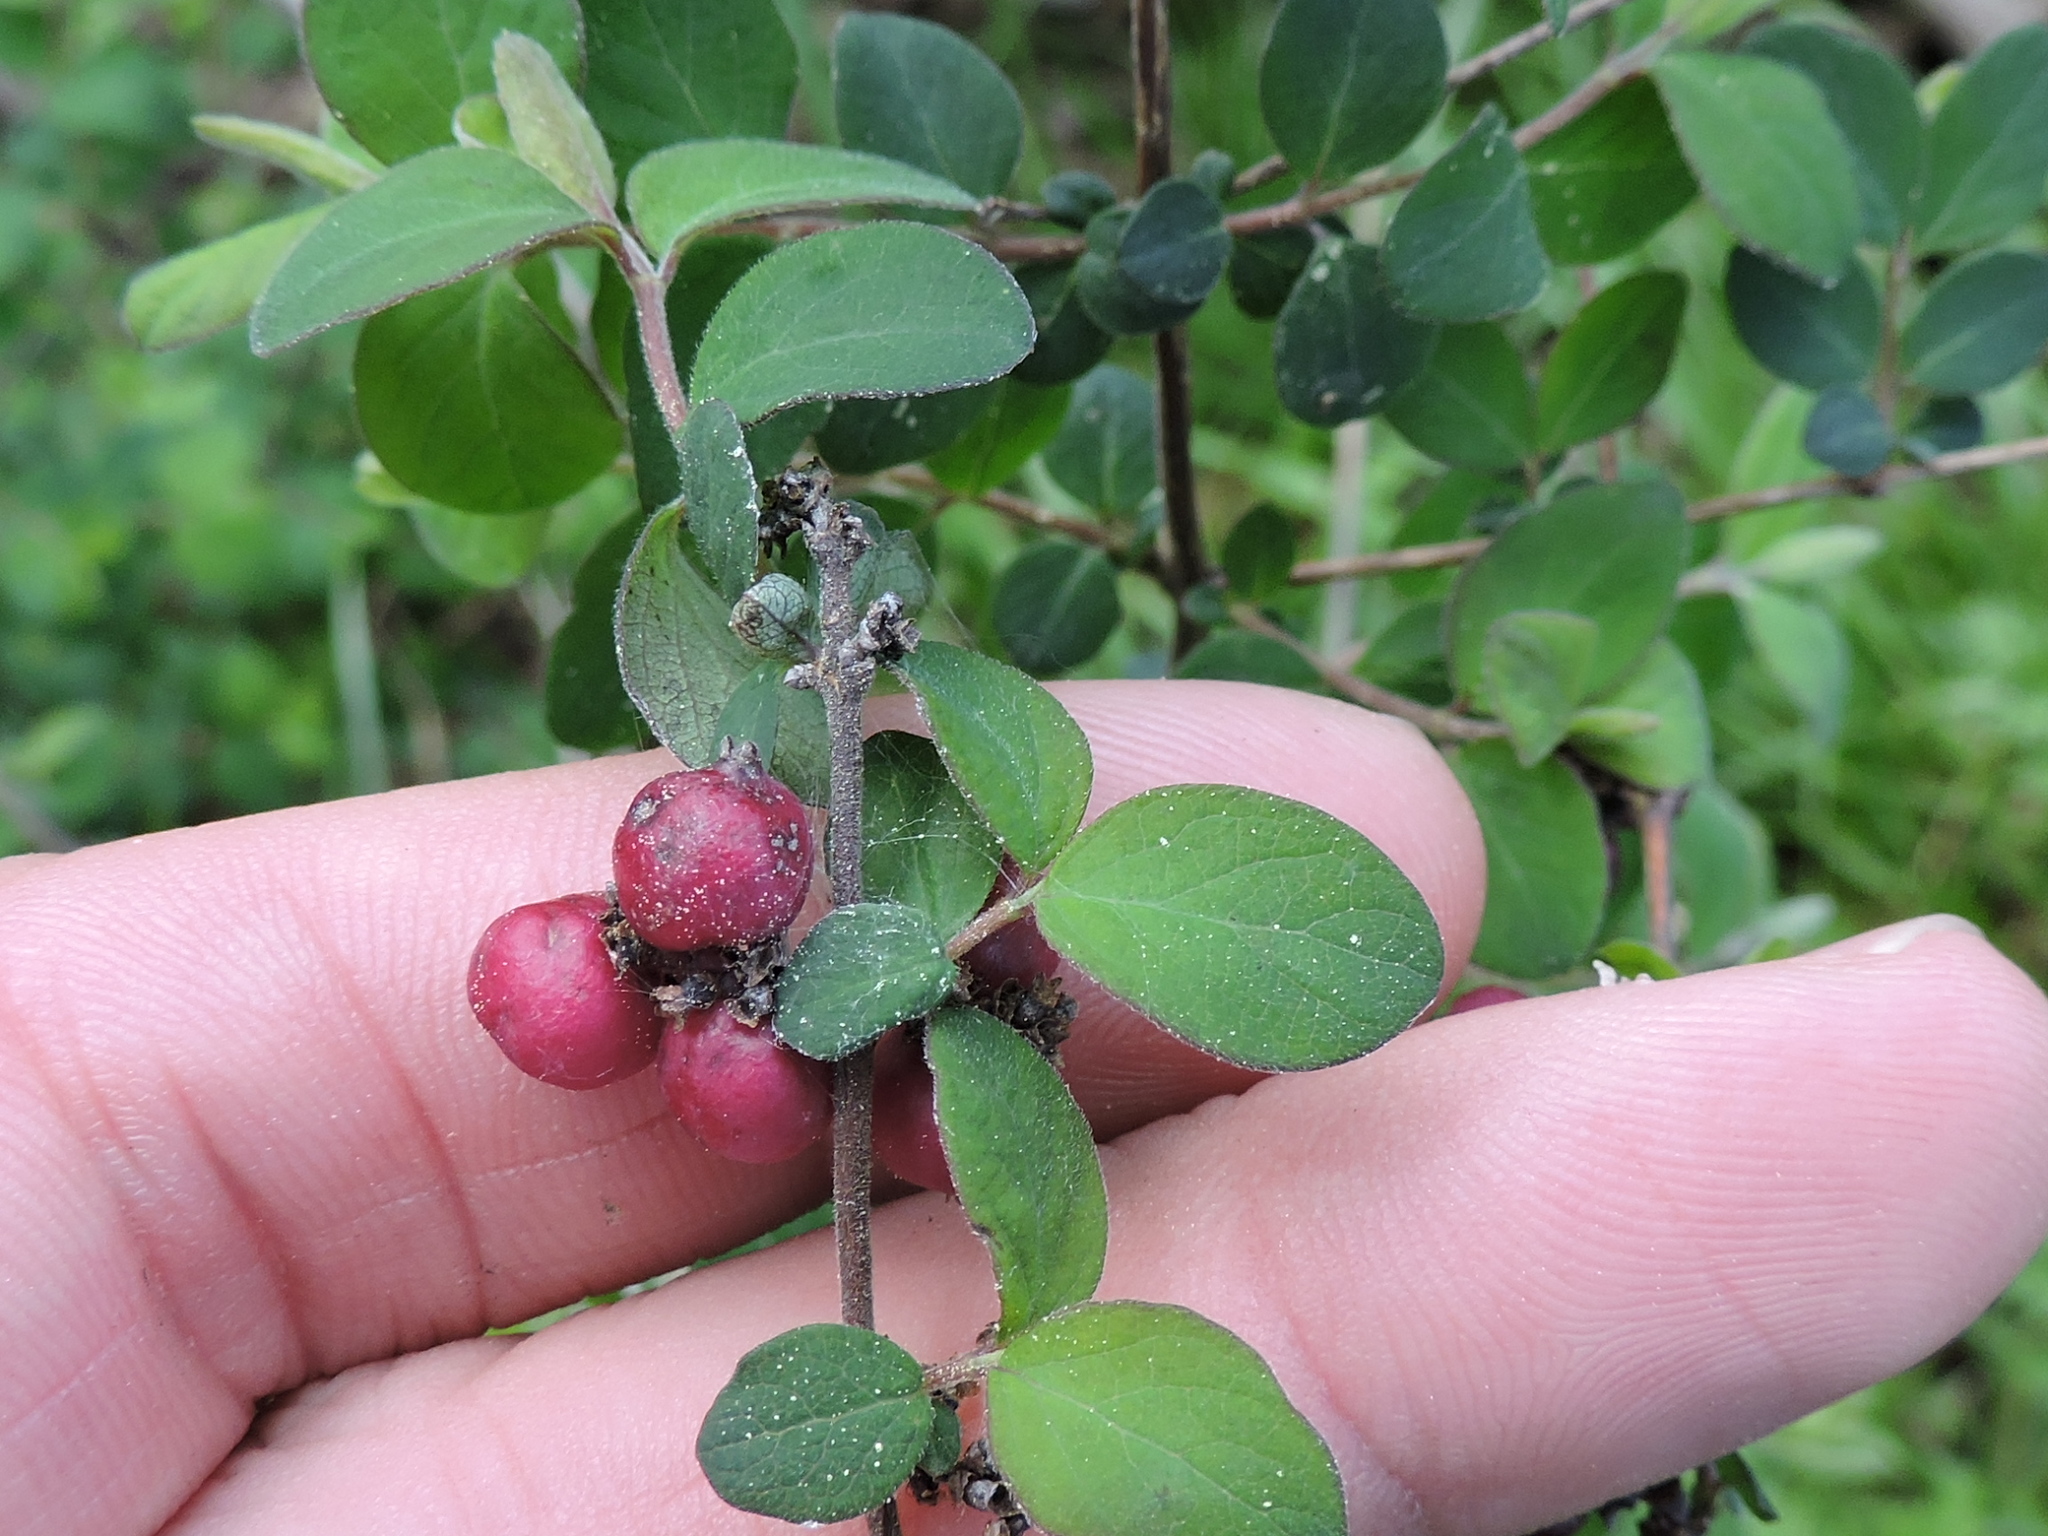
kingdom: Plantae
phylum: Tracheophyta
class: Magnoliopsida
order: Dipsacales
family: Caprifoliaceae
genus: Symphoricarpos
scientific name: Symphoricarpos orbiculatus
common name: Coralberry
